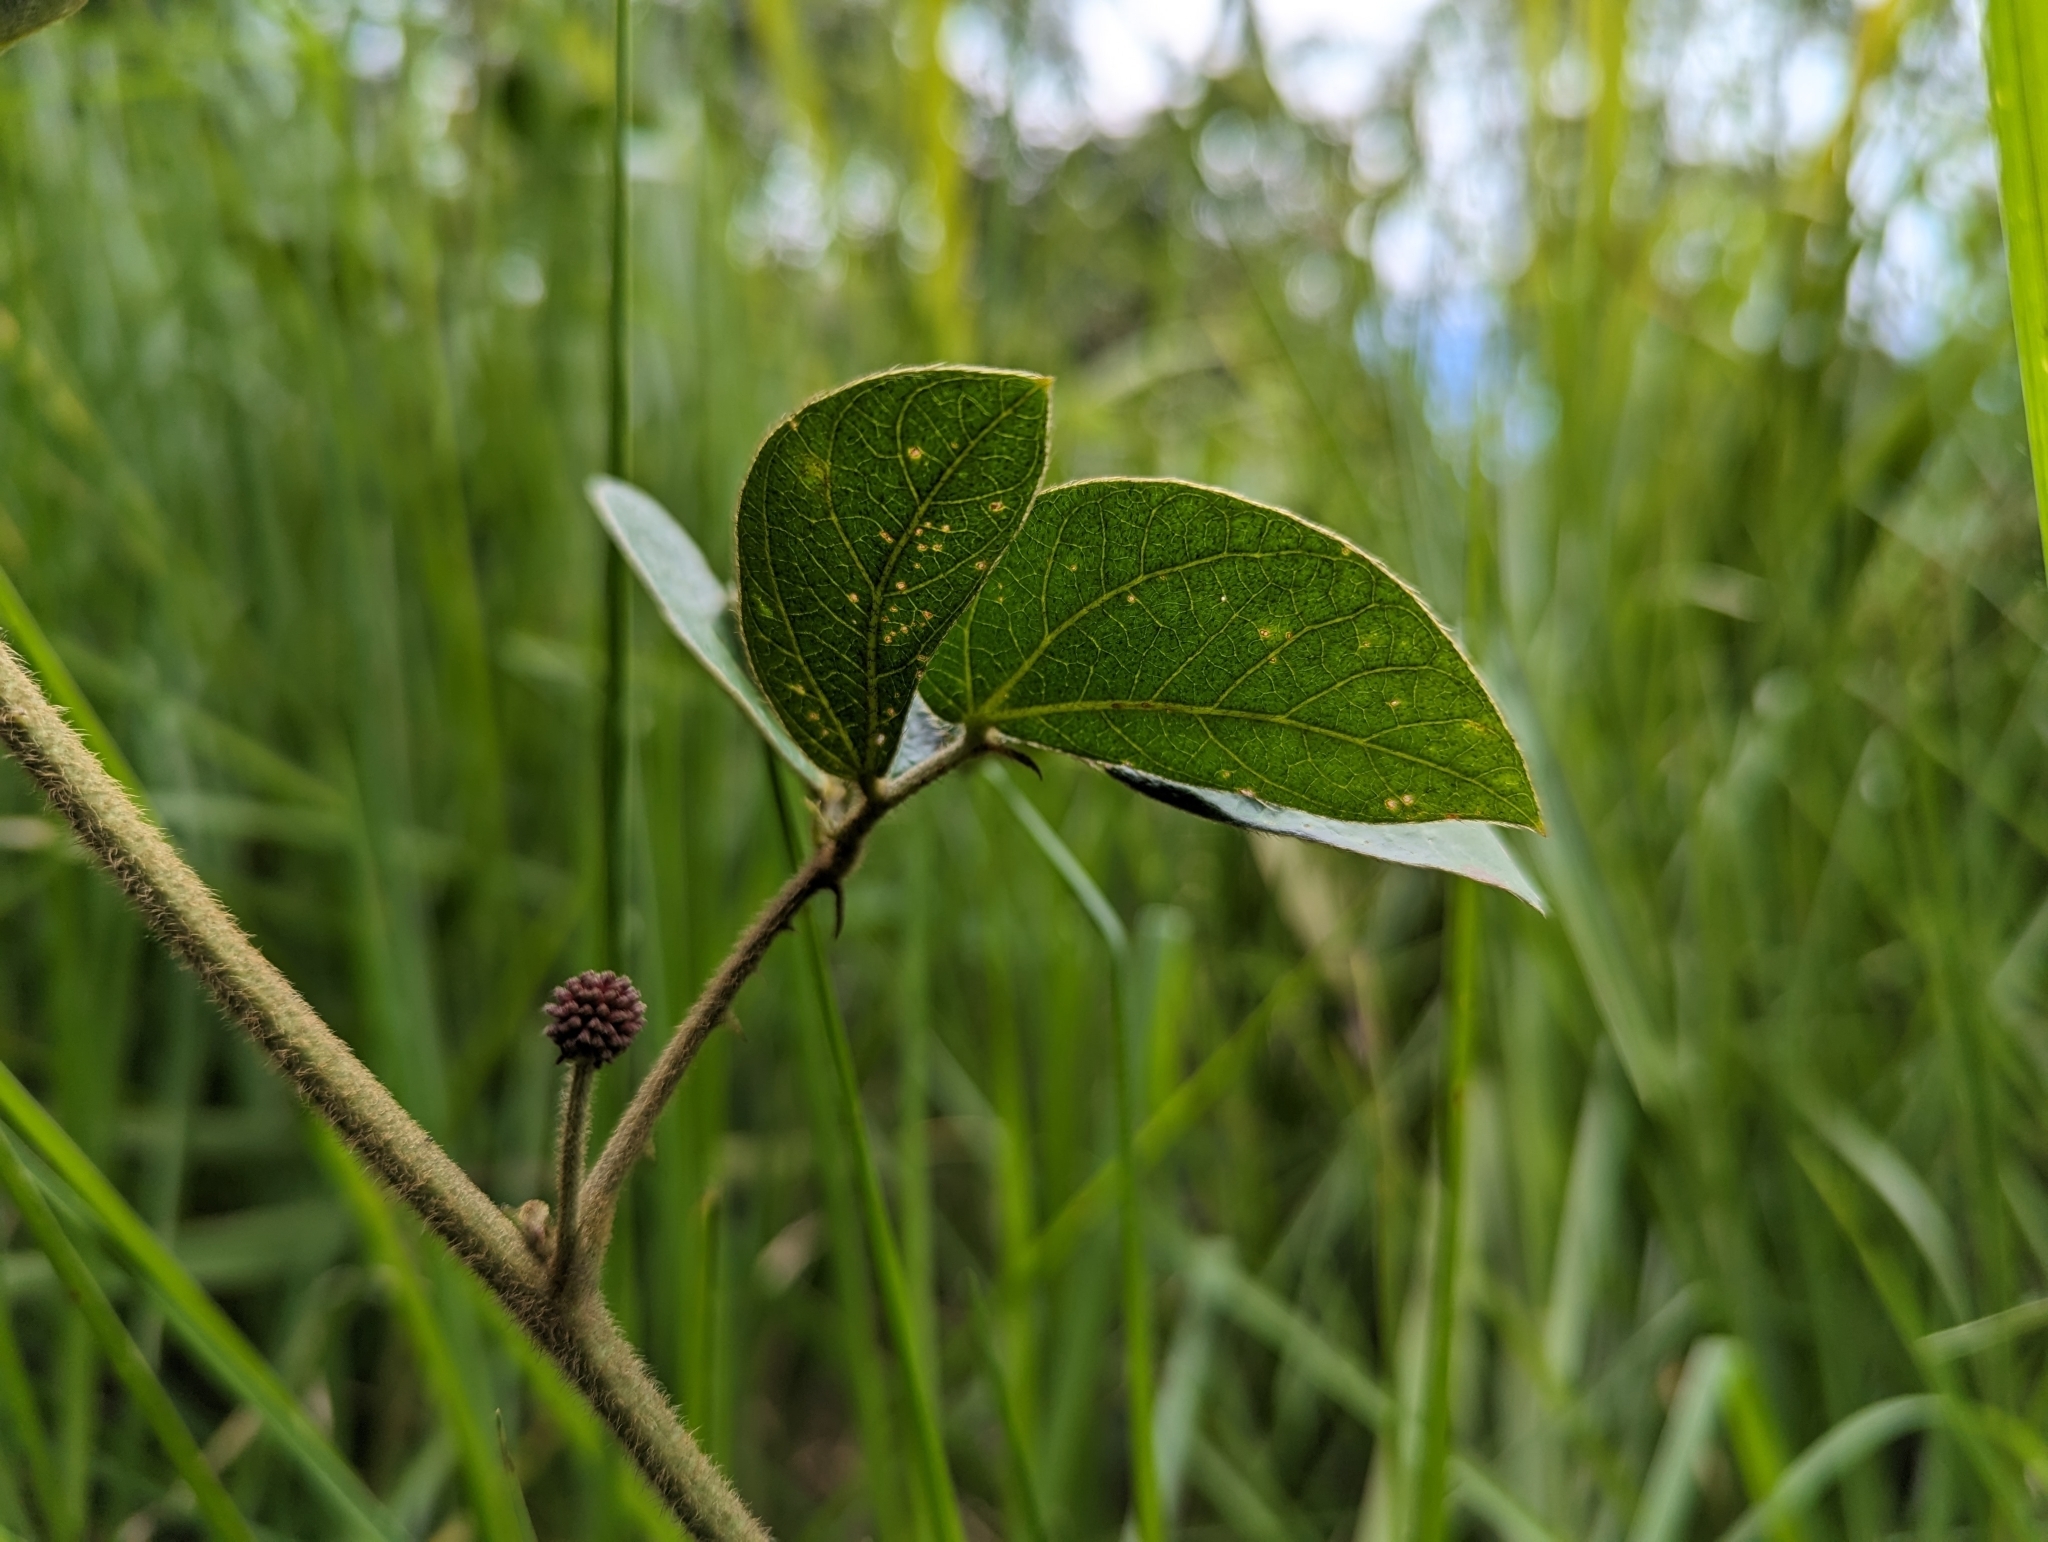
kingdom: Plantae
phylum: Tracheophyta
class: Magnoliopsida
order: Fabales
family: Fabaceae
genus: Mimosa
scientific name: Mimosa albida
